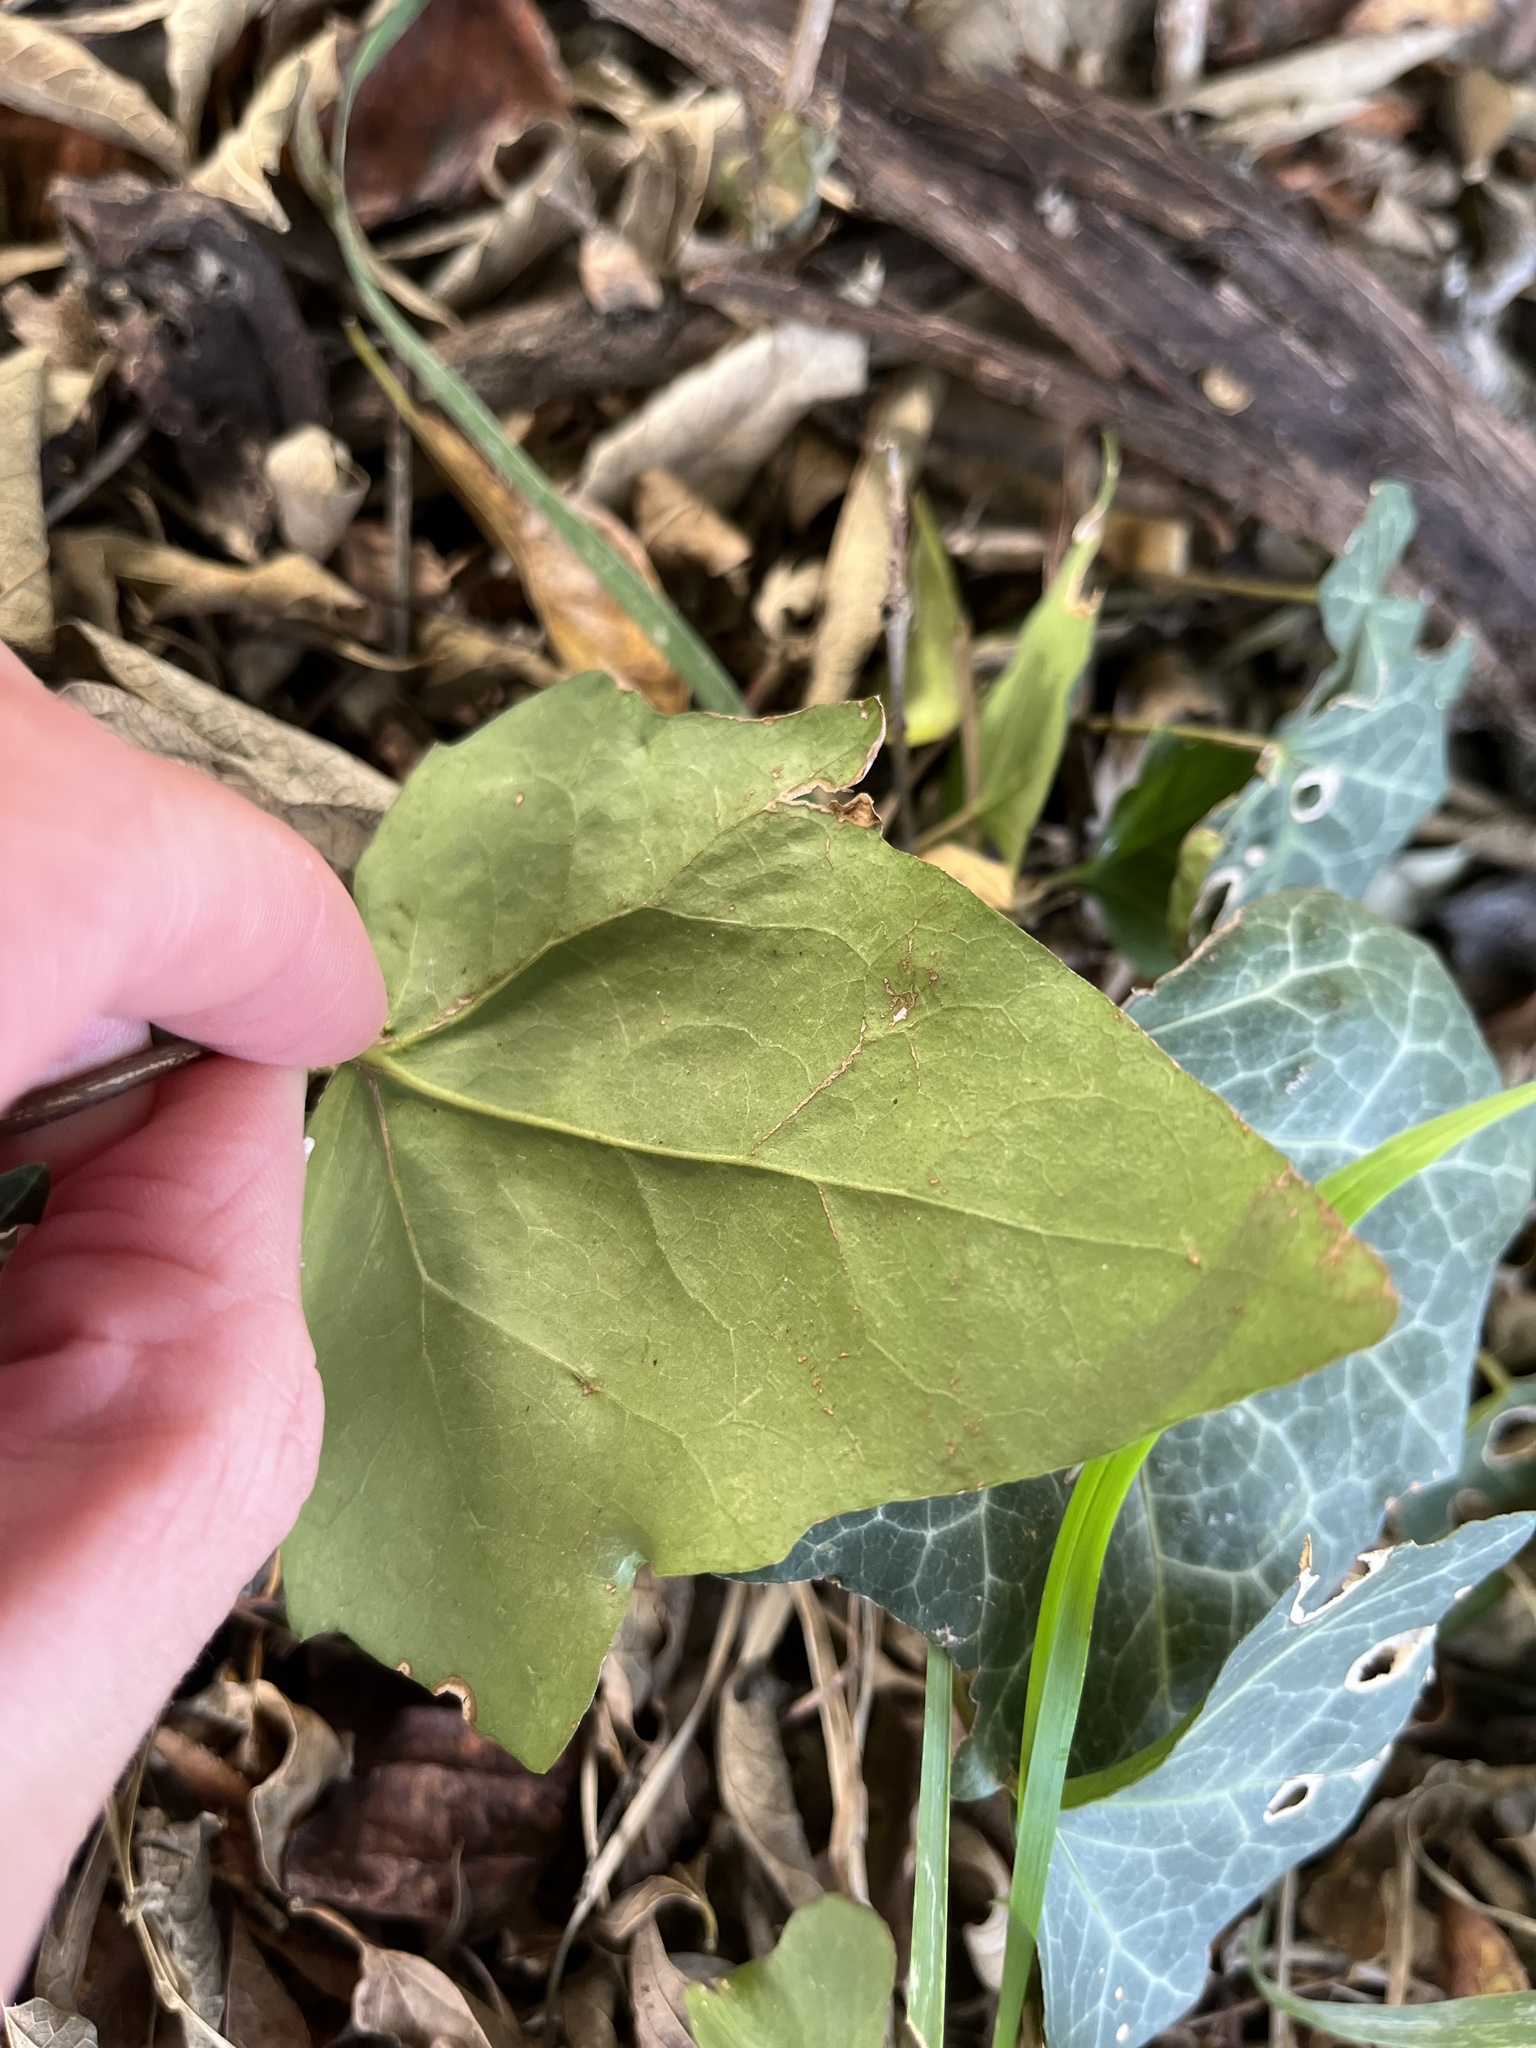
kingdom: Plantae
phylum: Tracheophyta
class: Magnoliopsida
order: Apiales
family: Araliaceae
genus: Hedera
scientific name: Hedera helix
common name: Ivy
